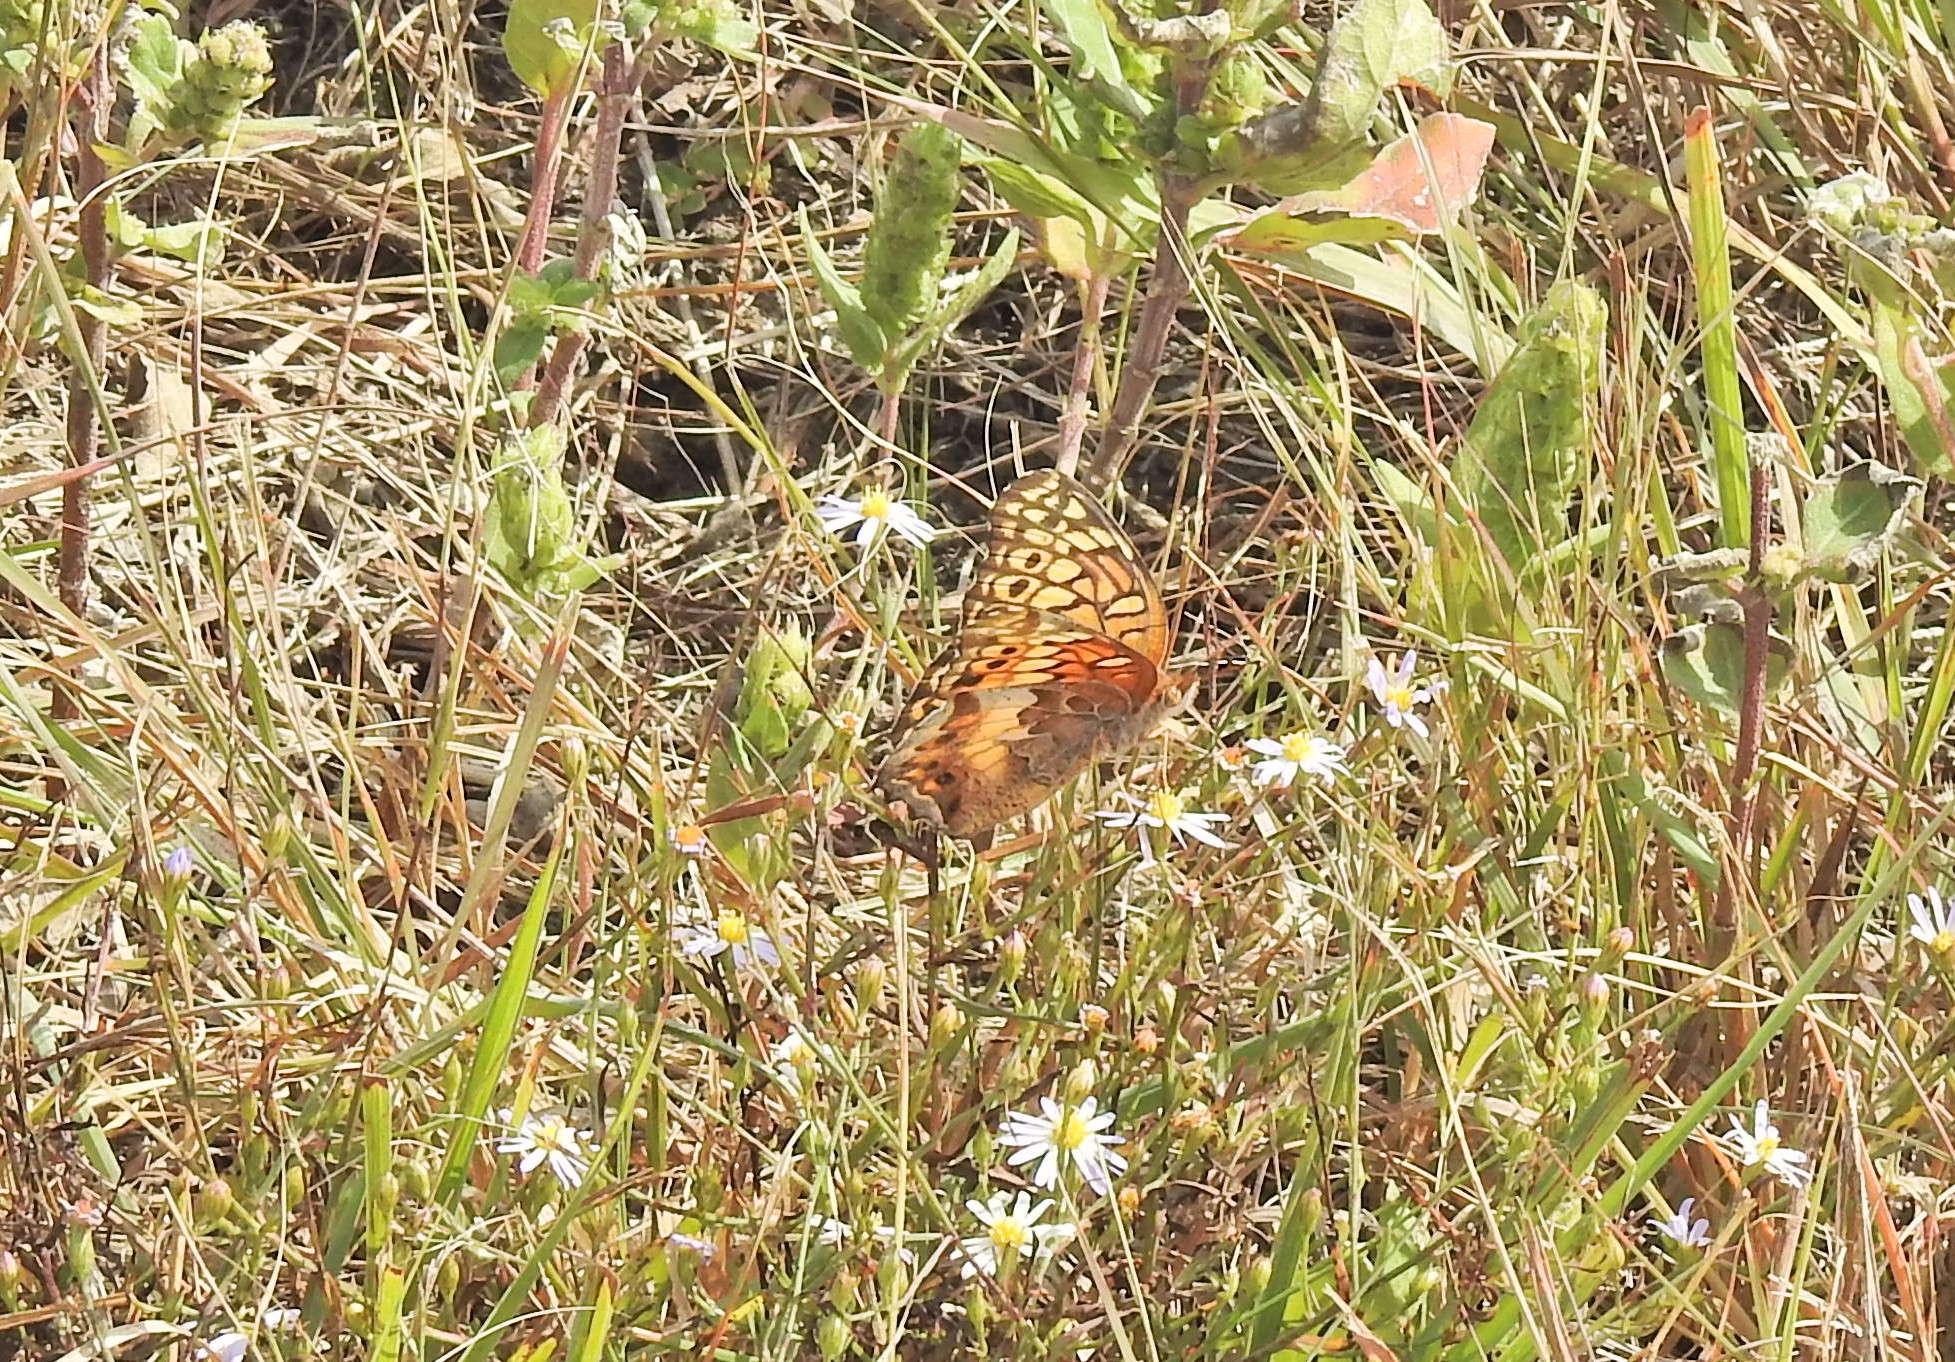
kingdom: Animalia
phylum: Arthropoda
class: Insecta
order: Lepidoptera
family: Nymphalidae
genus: Euptoieta
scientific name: Euptoieta claudia
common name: Variegated fritillary
